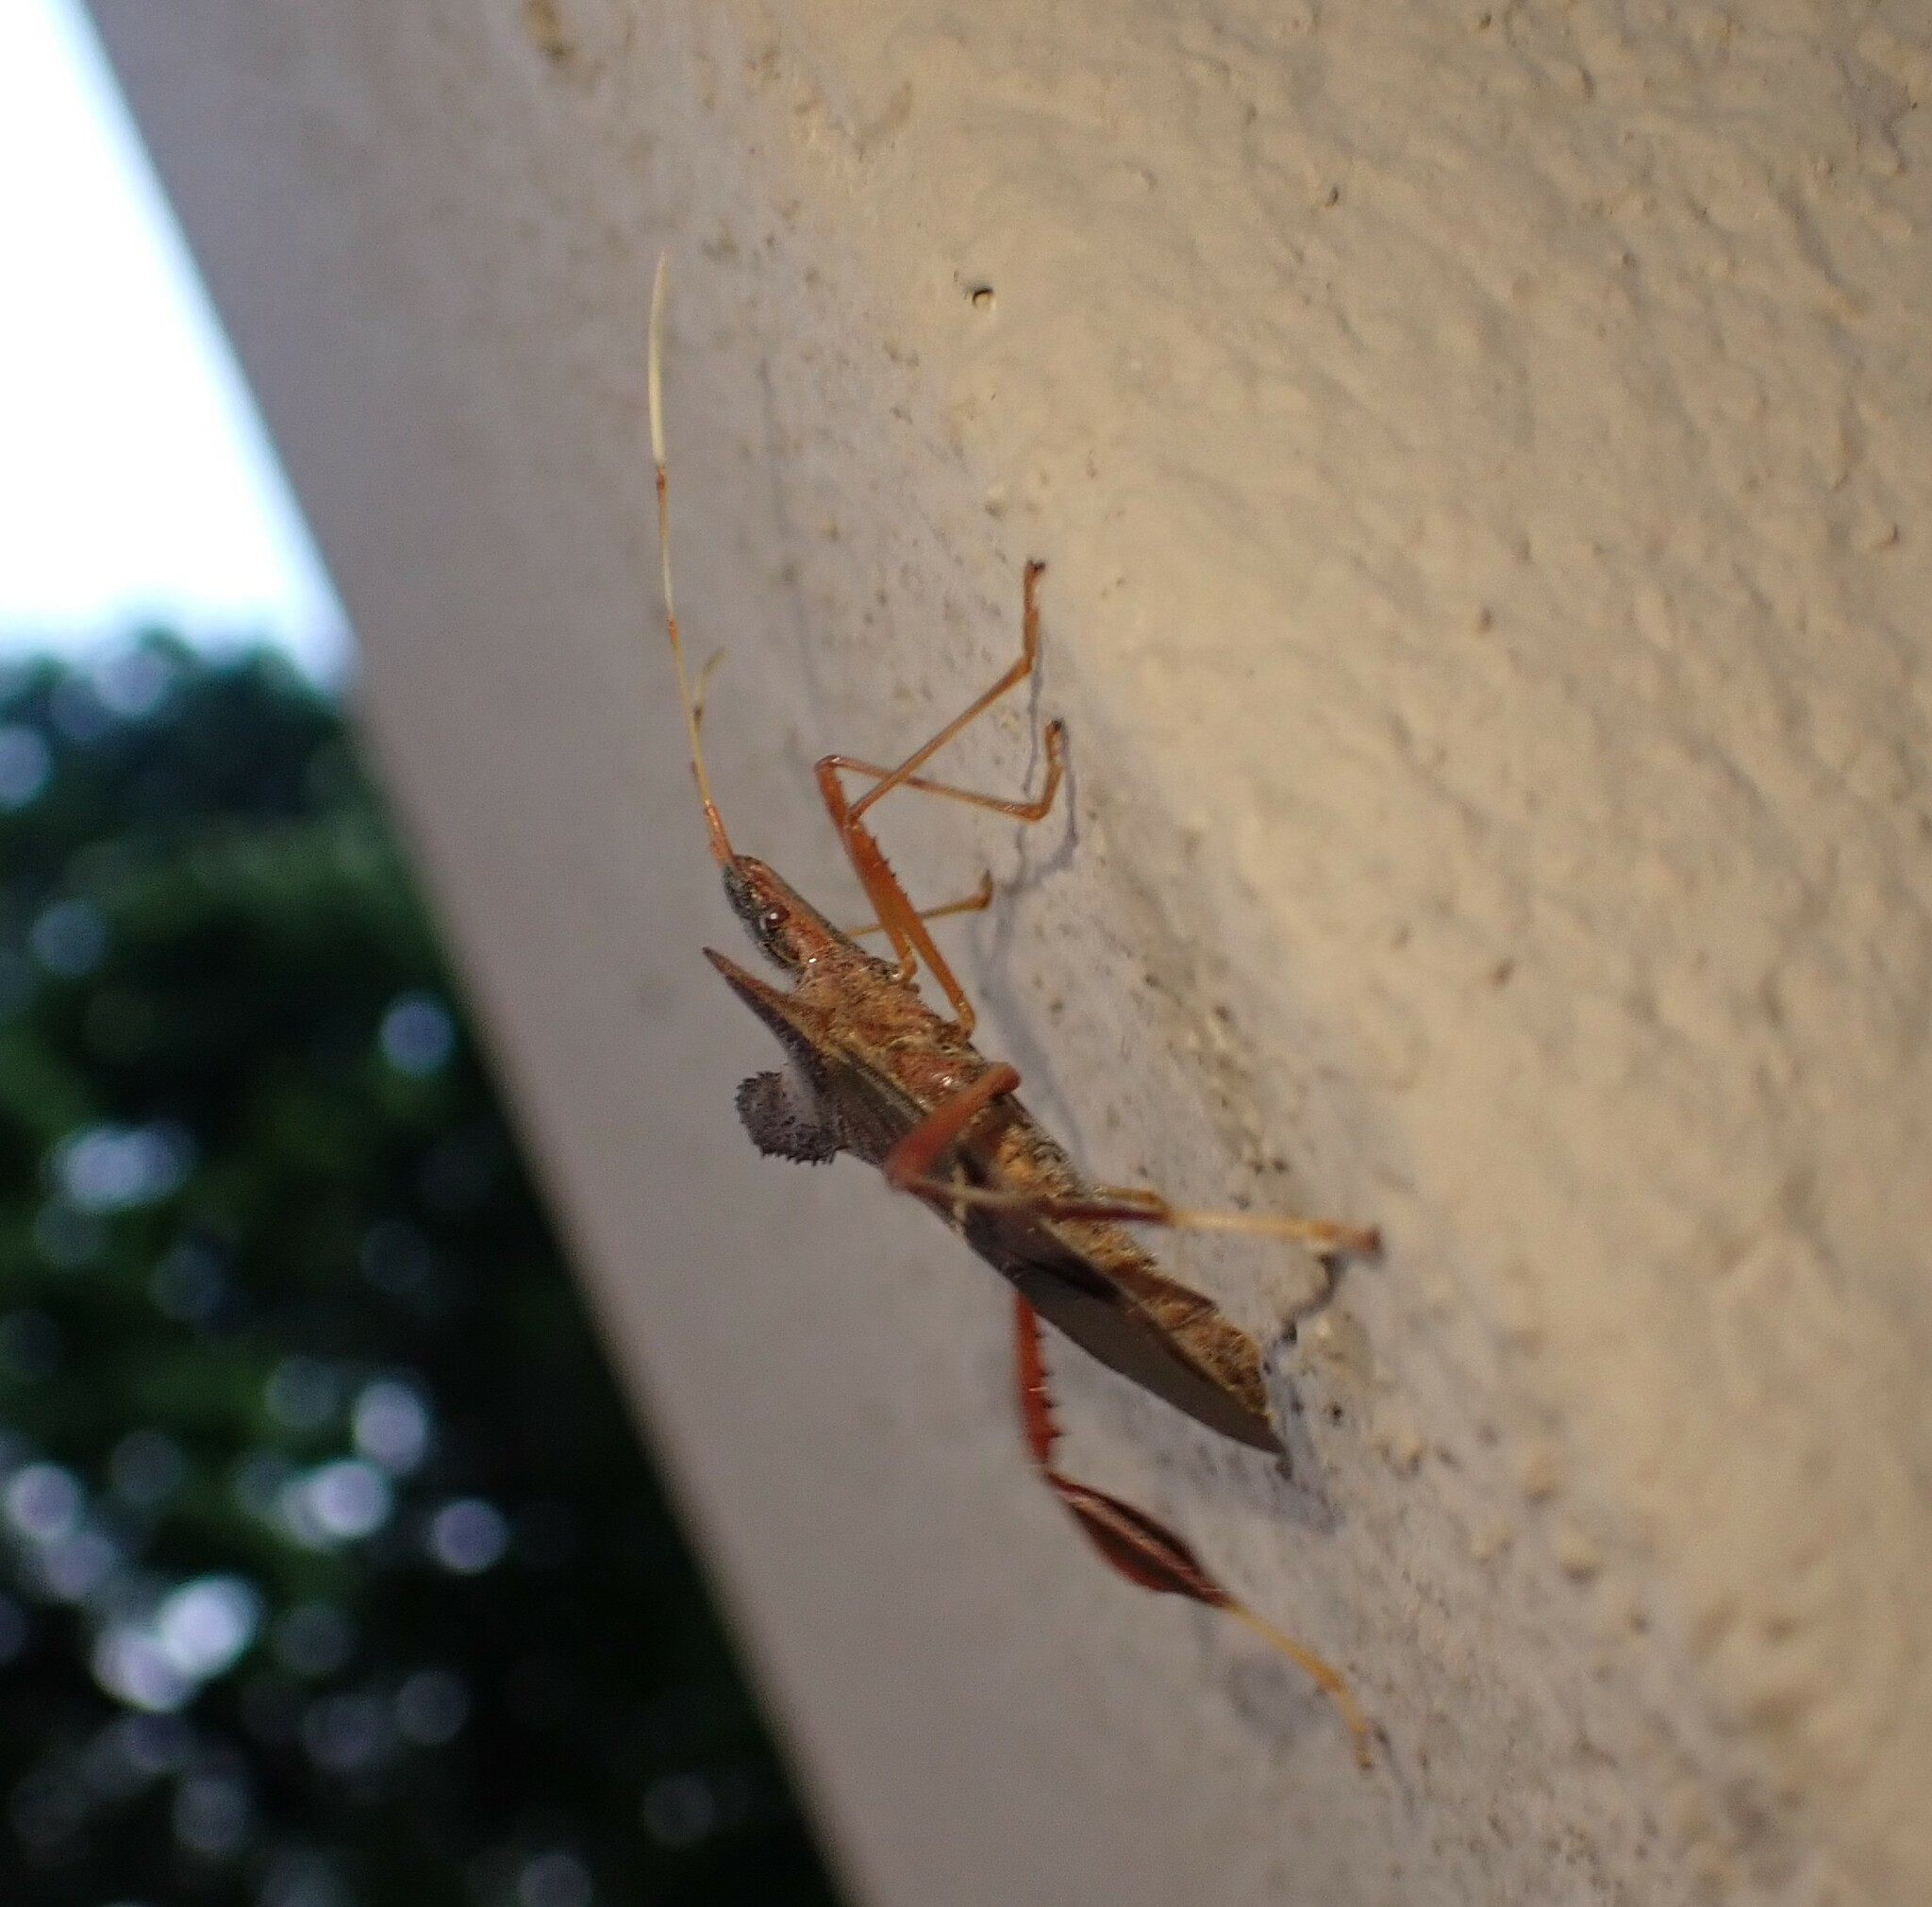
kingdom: Animalia
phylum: Arthropoda
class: Insecta
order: Hemiptera
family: Coreidae
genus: Leptoglossus
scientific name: Leptoglossus dilaticollis
